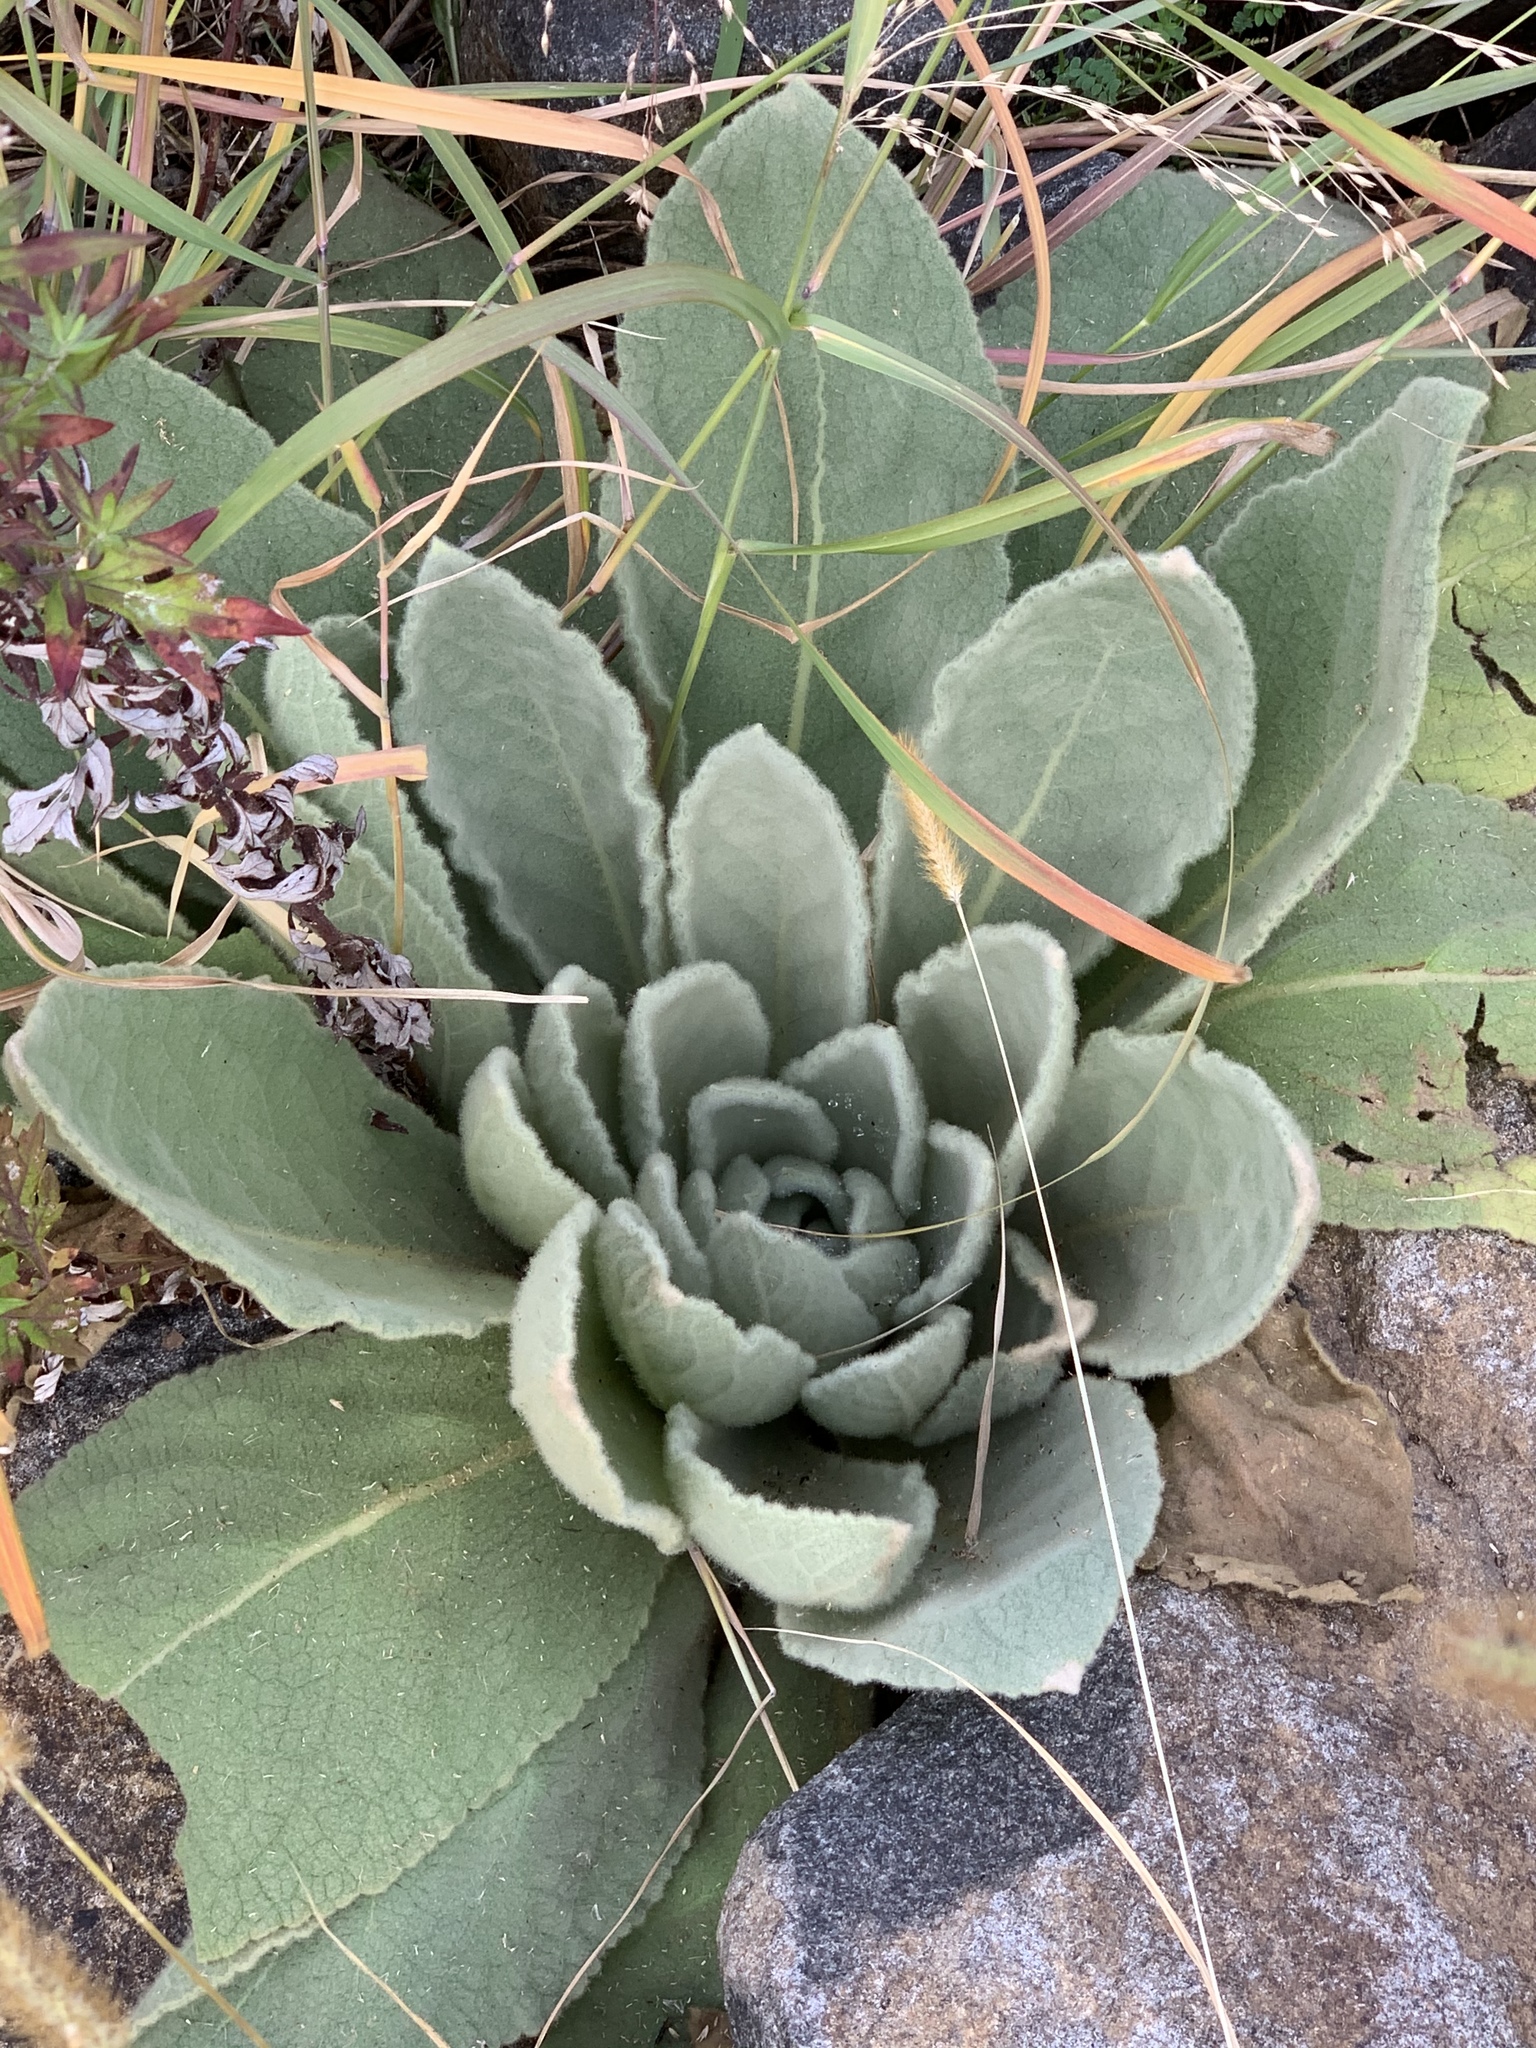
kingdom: Plantae
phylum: Tracheophyta
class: Magnoliopsida
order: Lamiales
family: Scrophulariaceae
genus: Verbascum
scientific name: Verbascum thapsus
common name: Common mullein
